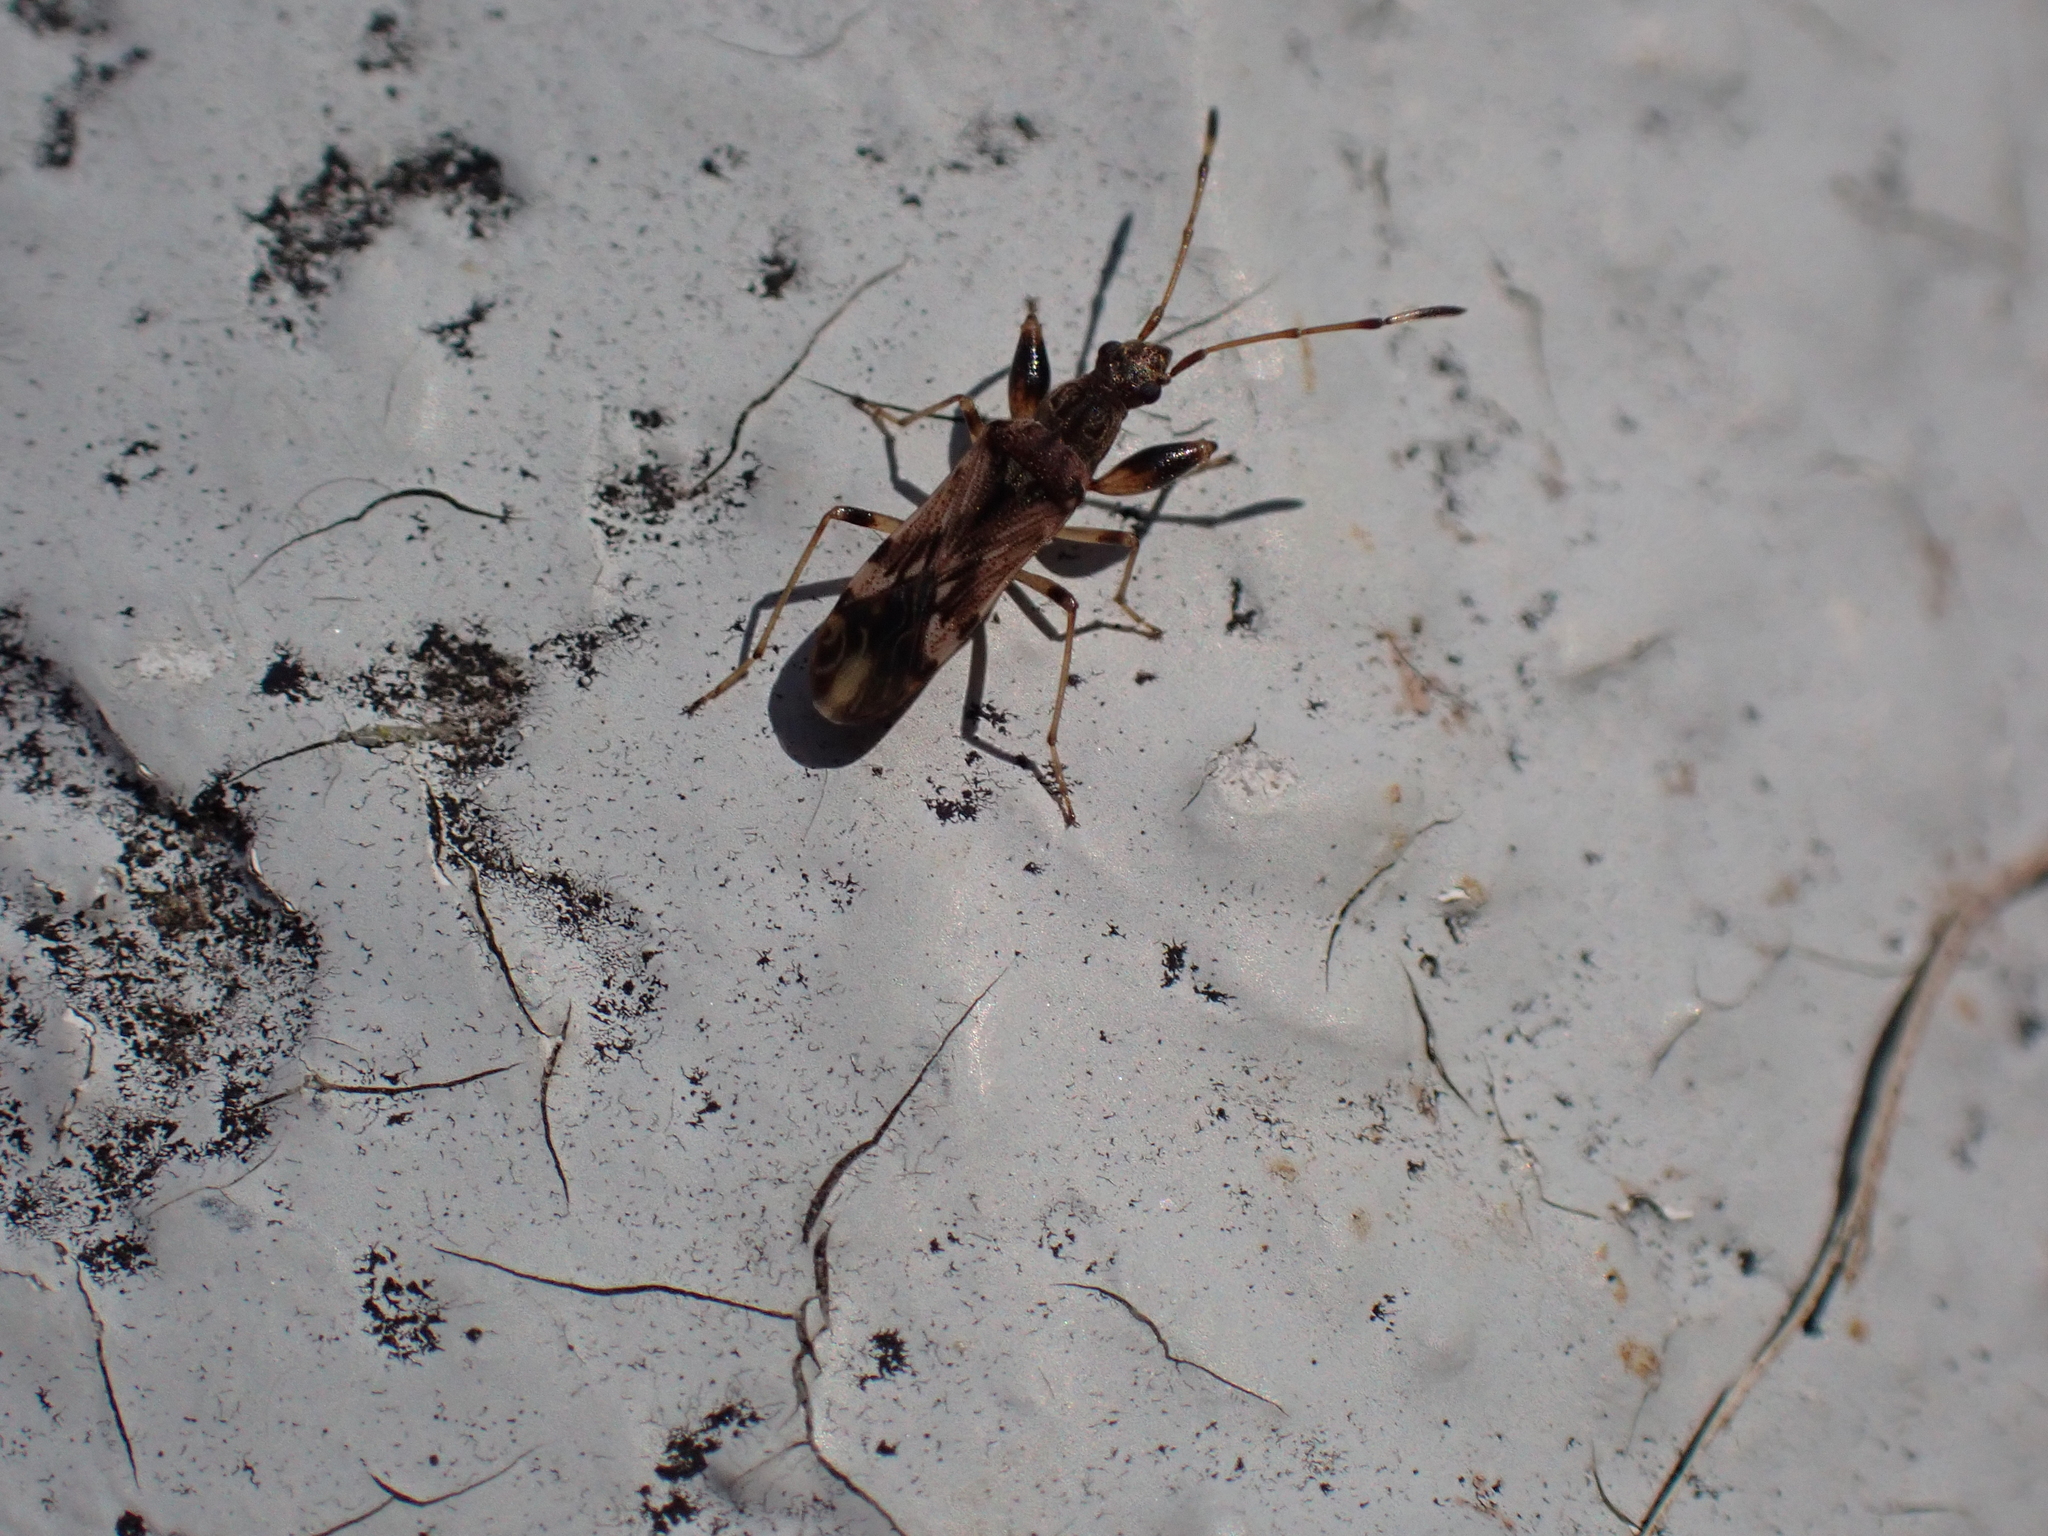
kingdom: Animalia
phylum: Arthropoda
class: Insecta
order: Hemiptera
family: Rhyparochromidae
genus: Neopamera
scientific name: Neopamera albocincta
